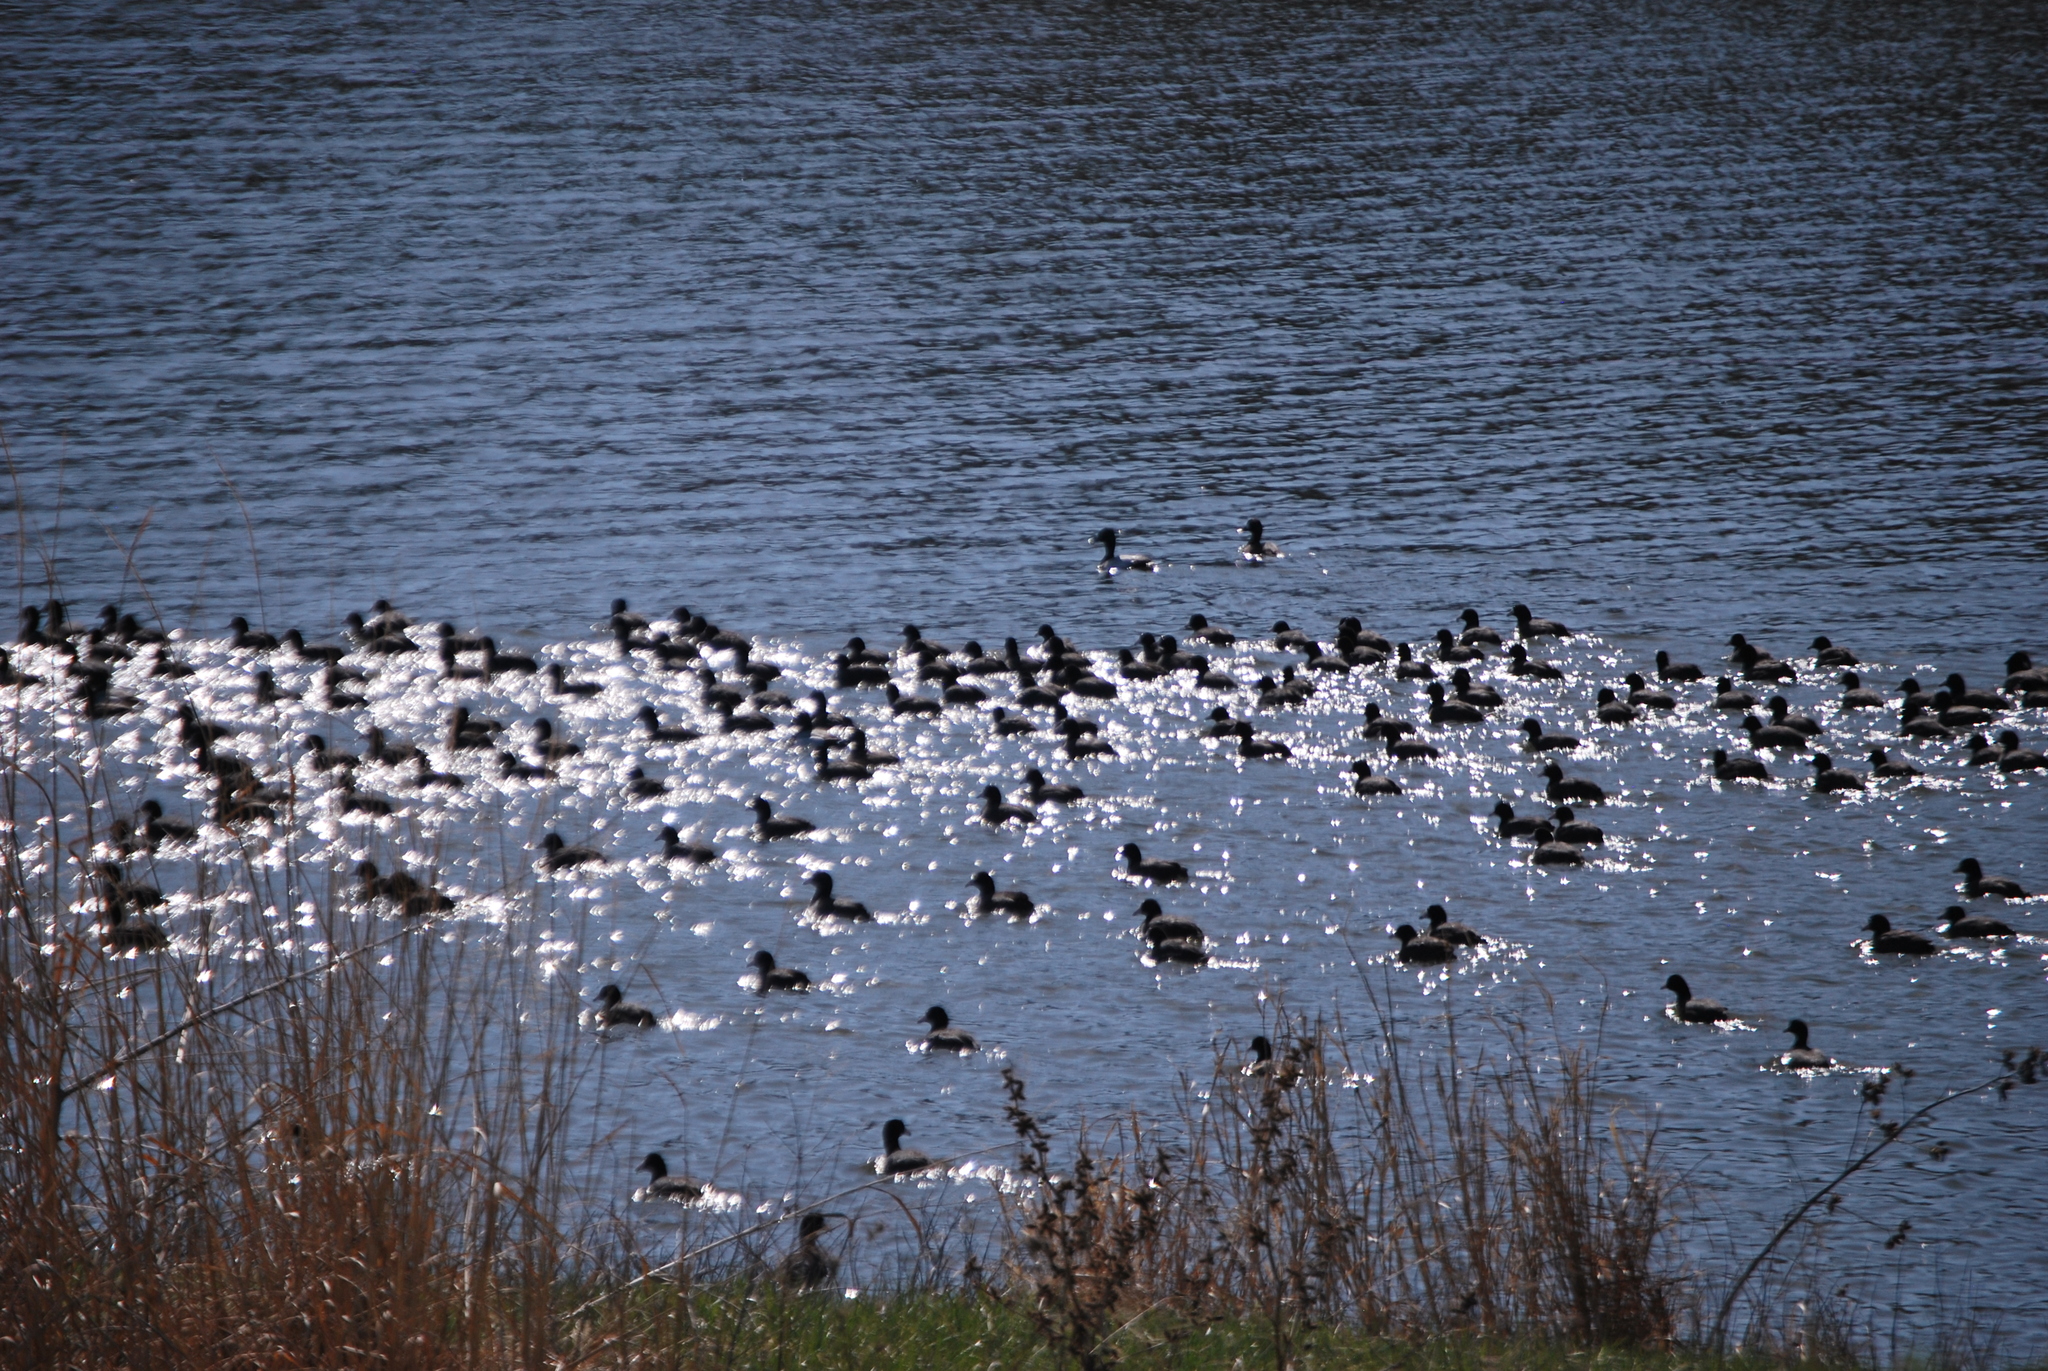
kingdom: Animalia
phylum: Chordata
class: Aves
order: Gruiformes
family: Rallidae
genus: Fulica
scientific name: Fulica americana
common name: American coot
